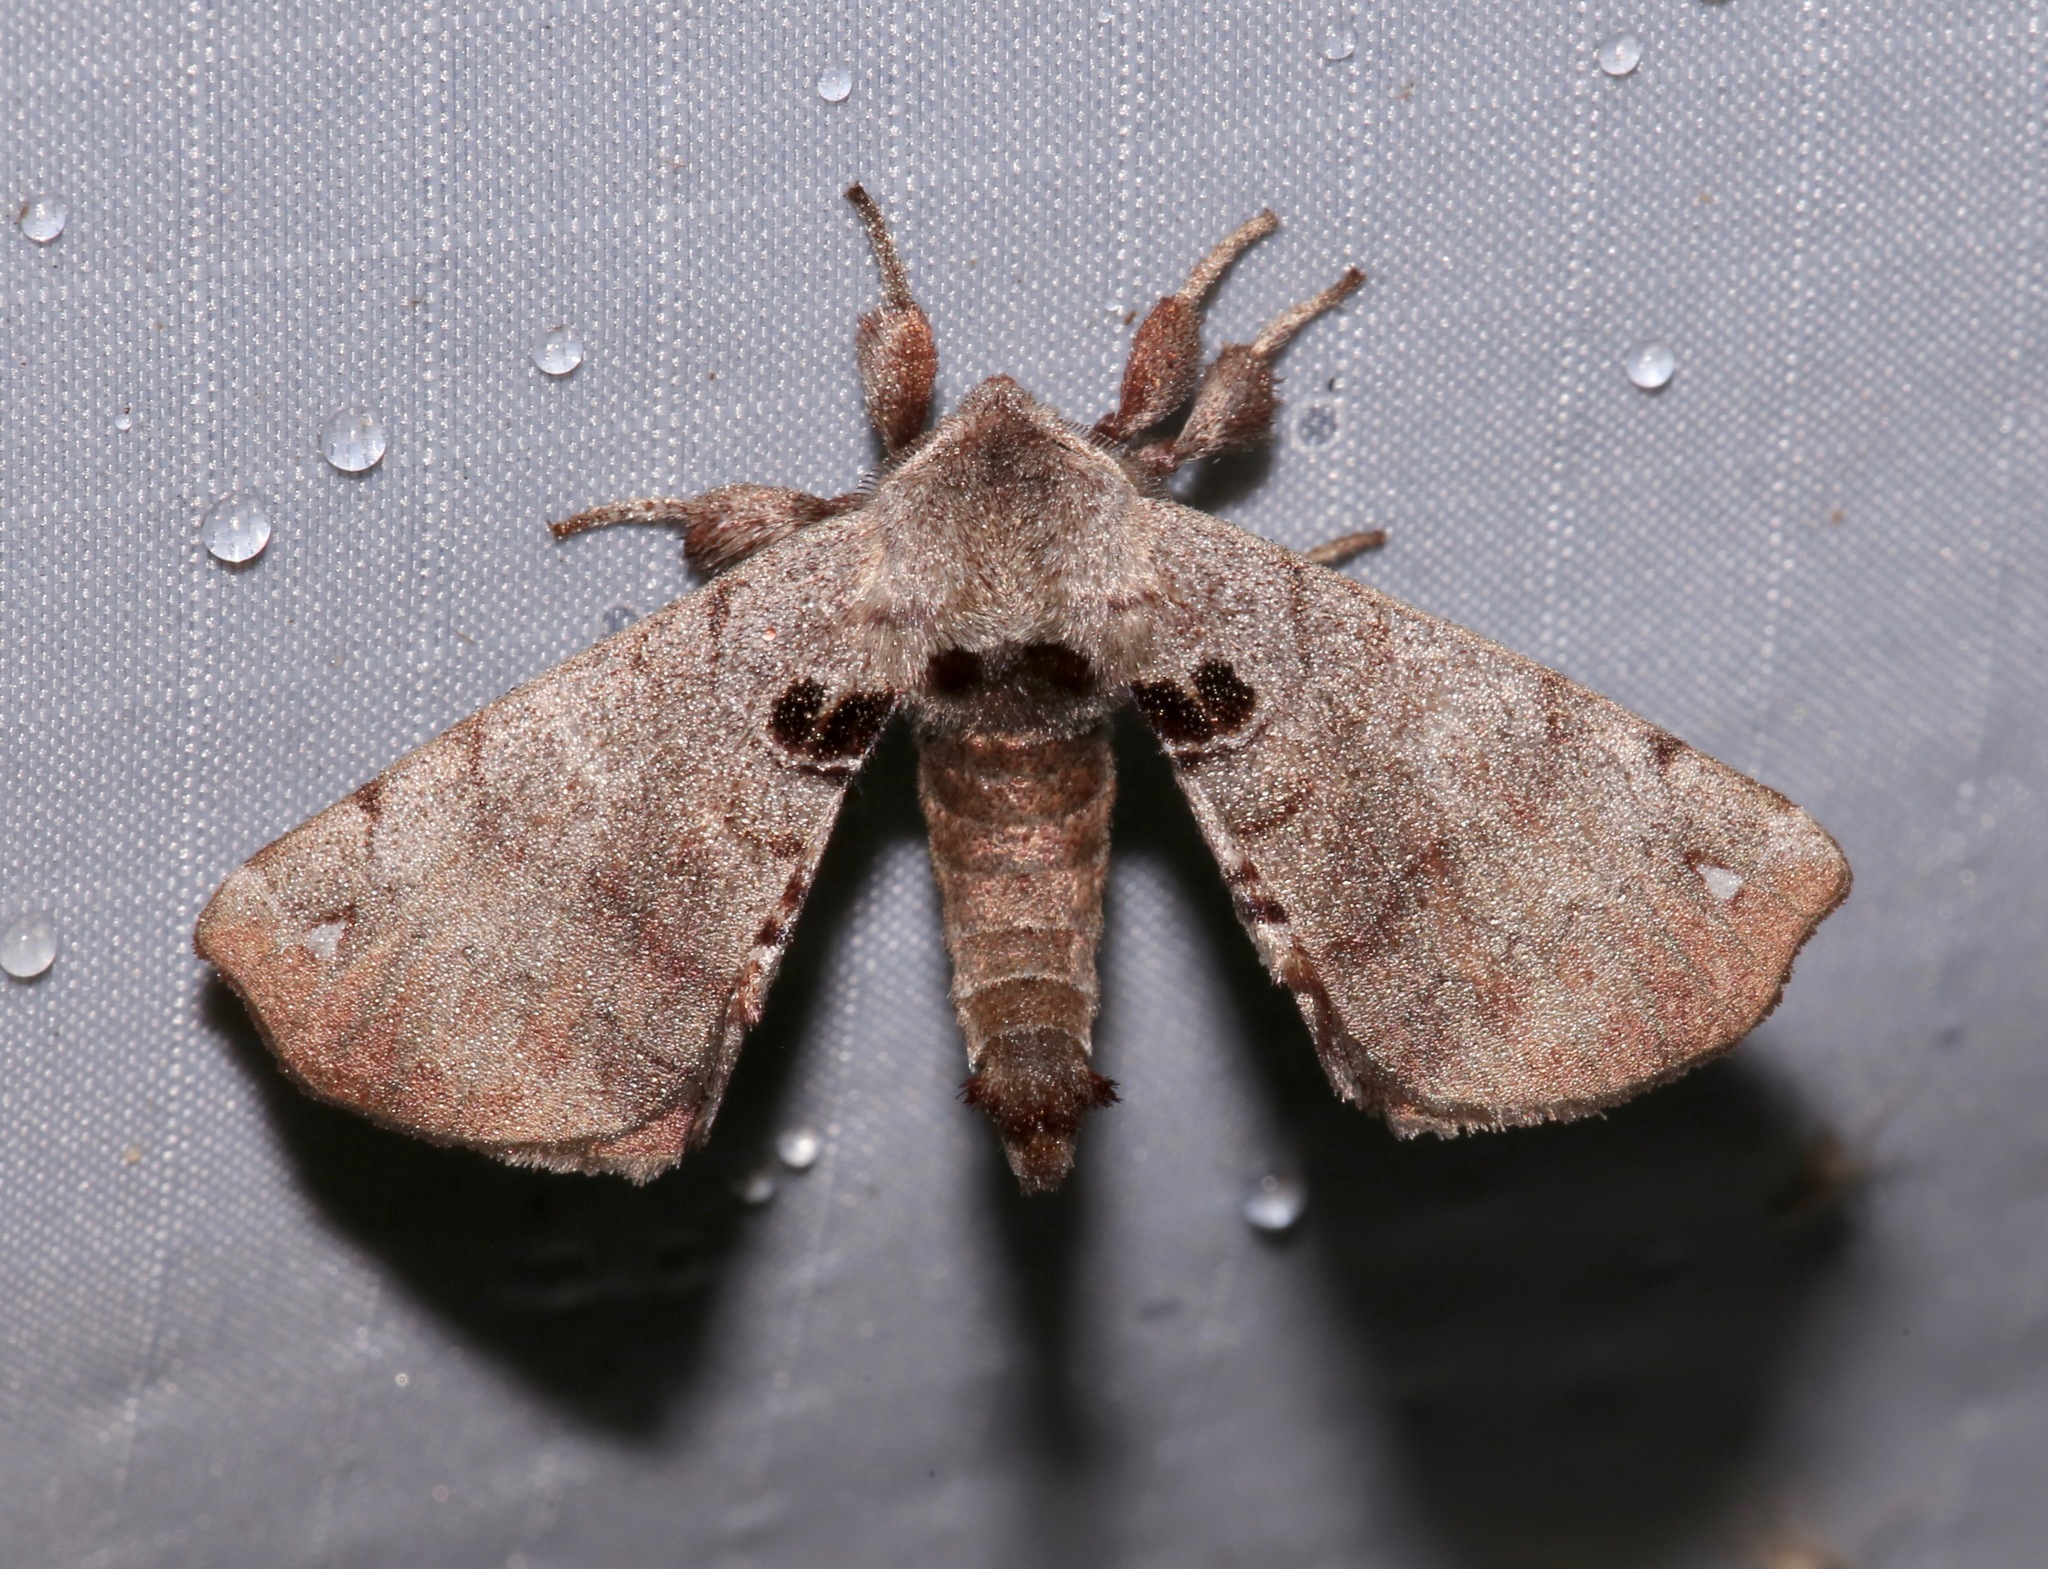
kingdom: Animalia
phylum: Arthropoda
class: Insecta
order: Lepidoptera
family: Apatelodidae
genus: Hygrochroa
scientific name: Hygrochroa Apatelodes torrefacta
